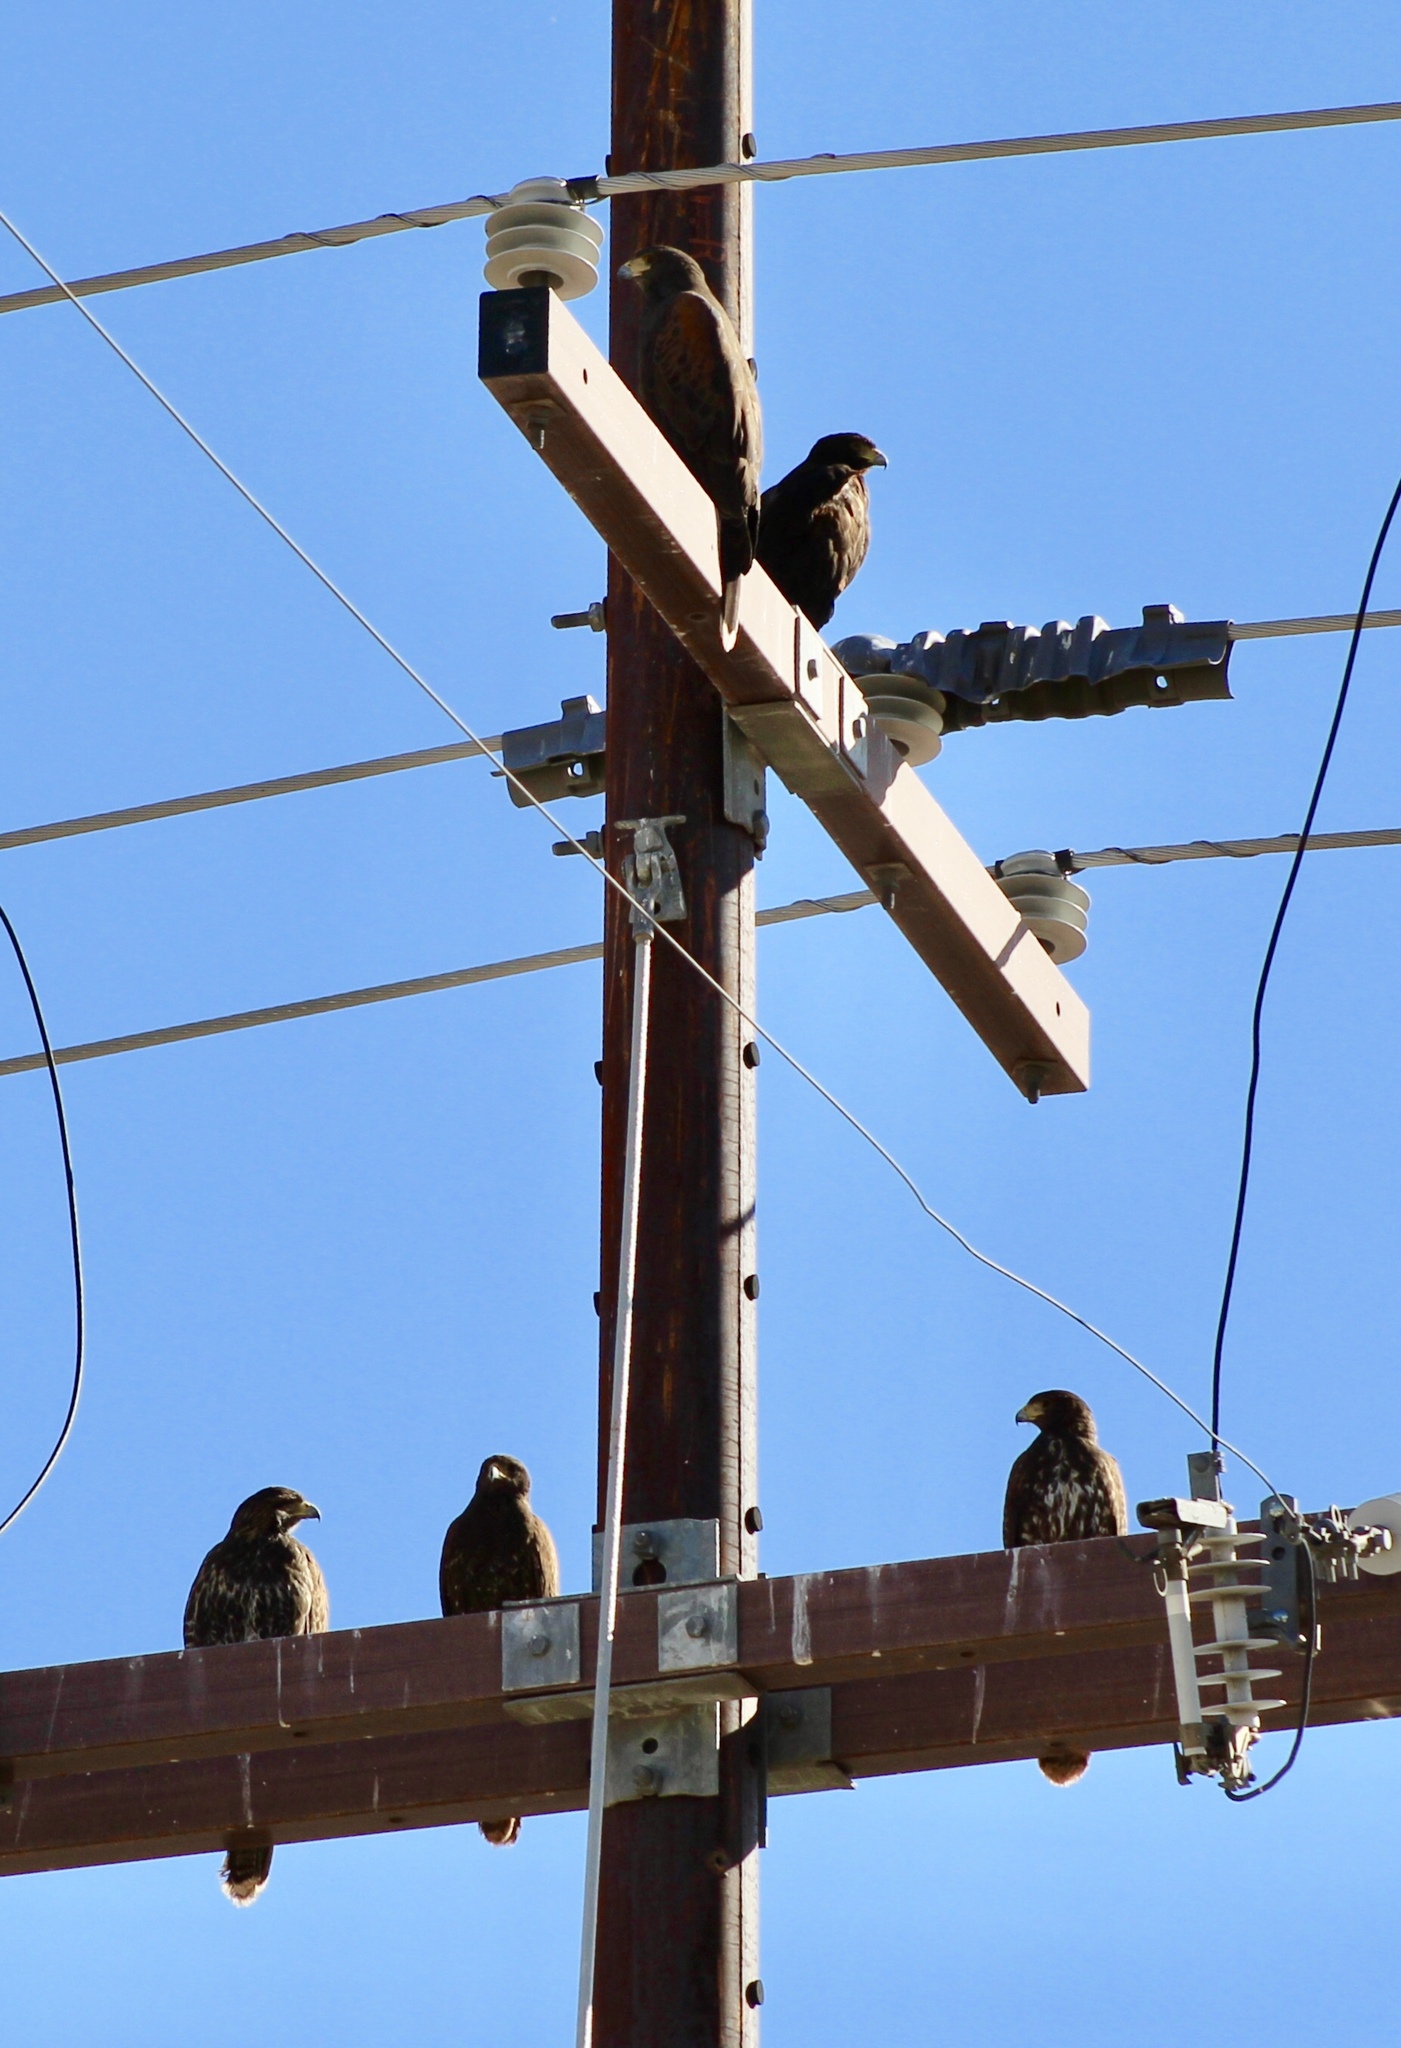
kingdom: Animalia
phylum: Chordata
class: Aves
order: Accipitriformes
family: Accipitridae
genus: Parabuteo
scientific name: Parabuteo unicinctus
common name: Harris's hawk
